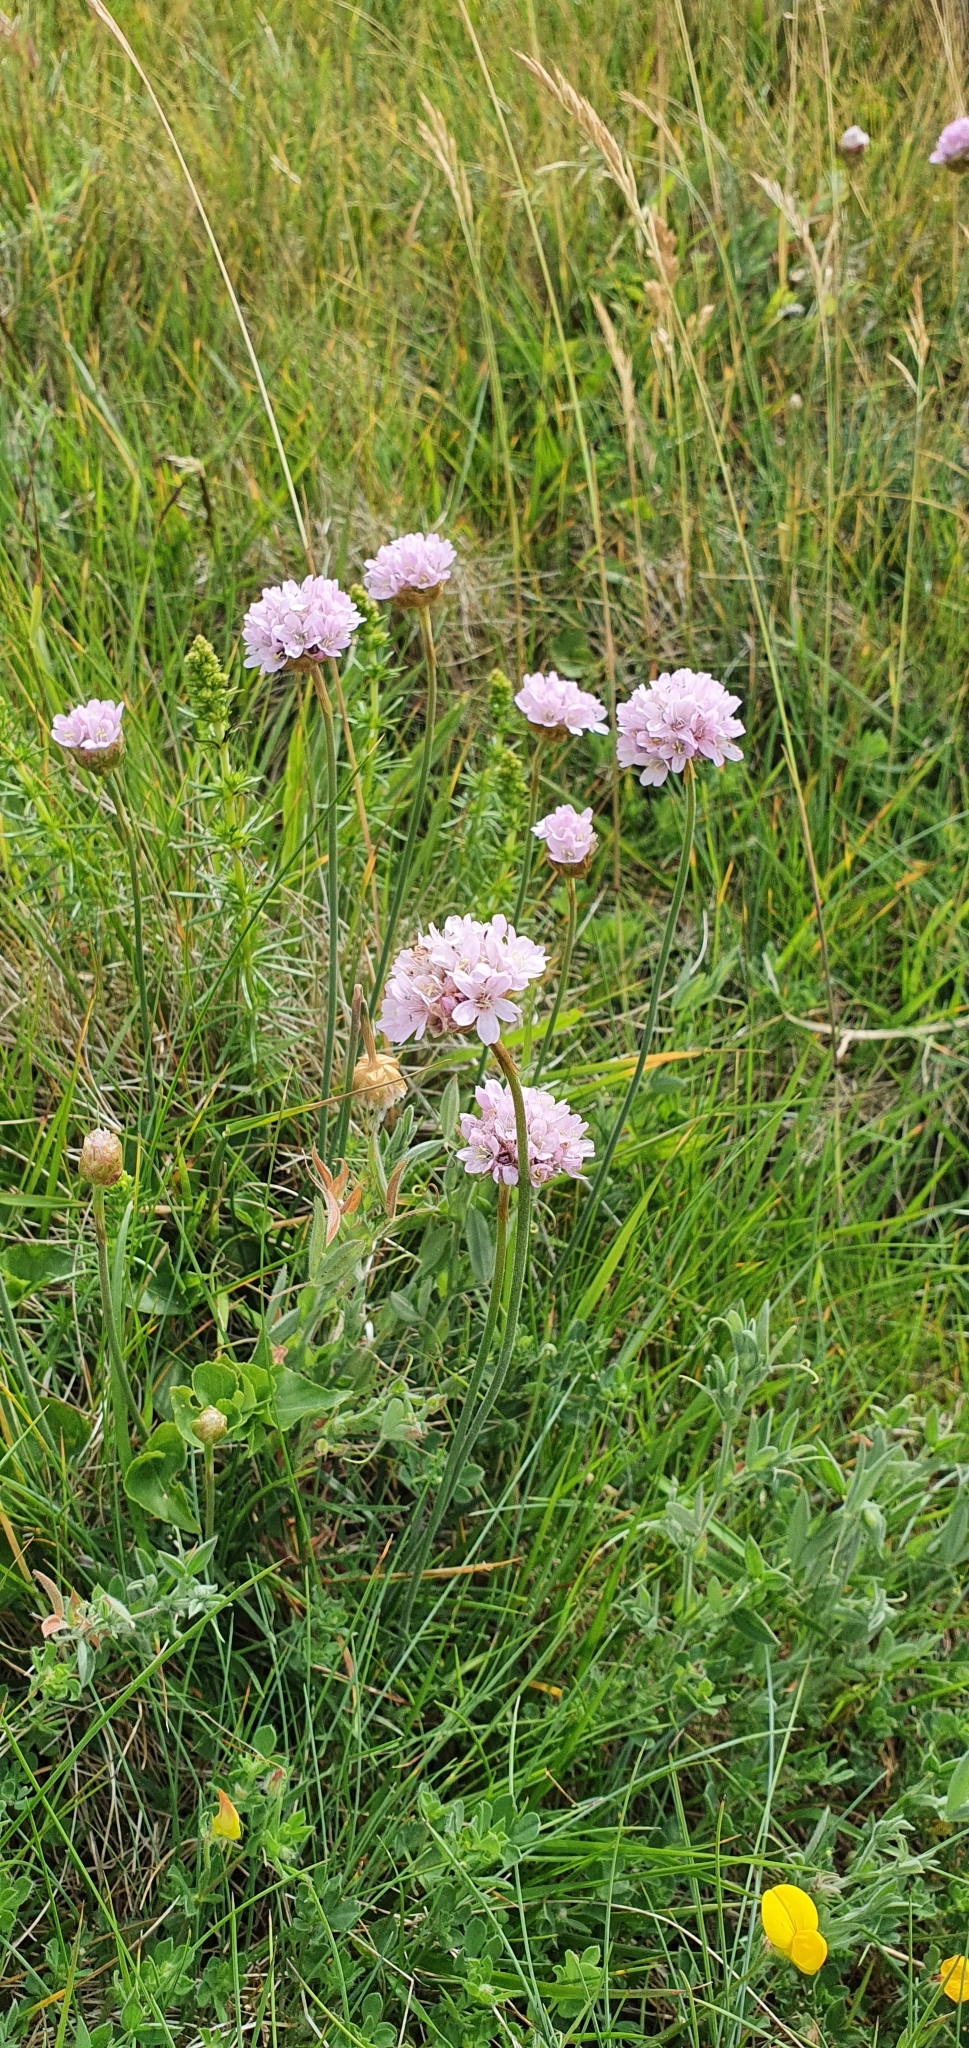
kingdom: Plantae
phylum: Tracheophyta
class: Magnoliopsida
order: Caryophyllales
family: Plumbaginaceae
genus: Armeria
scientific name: Armeria maritima
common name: Thrift
